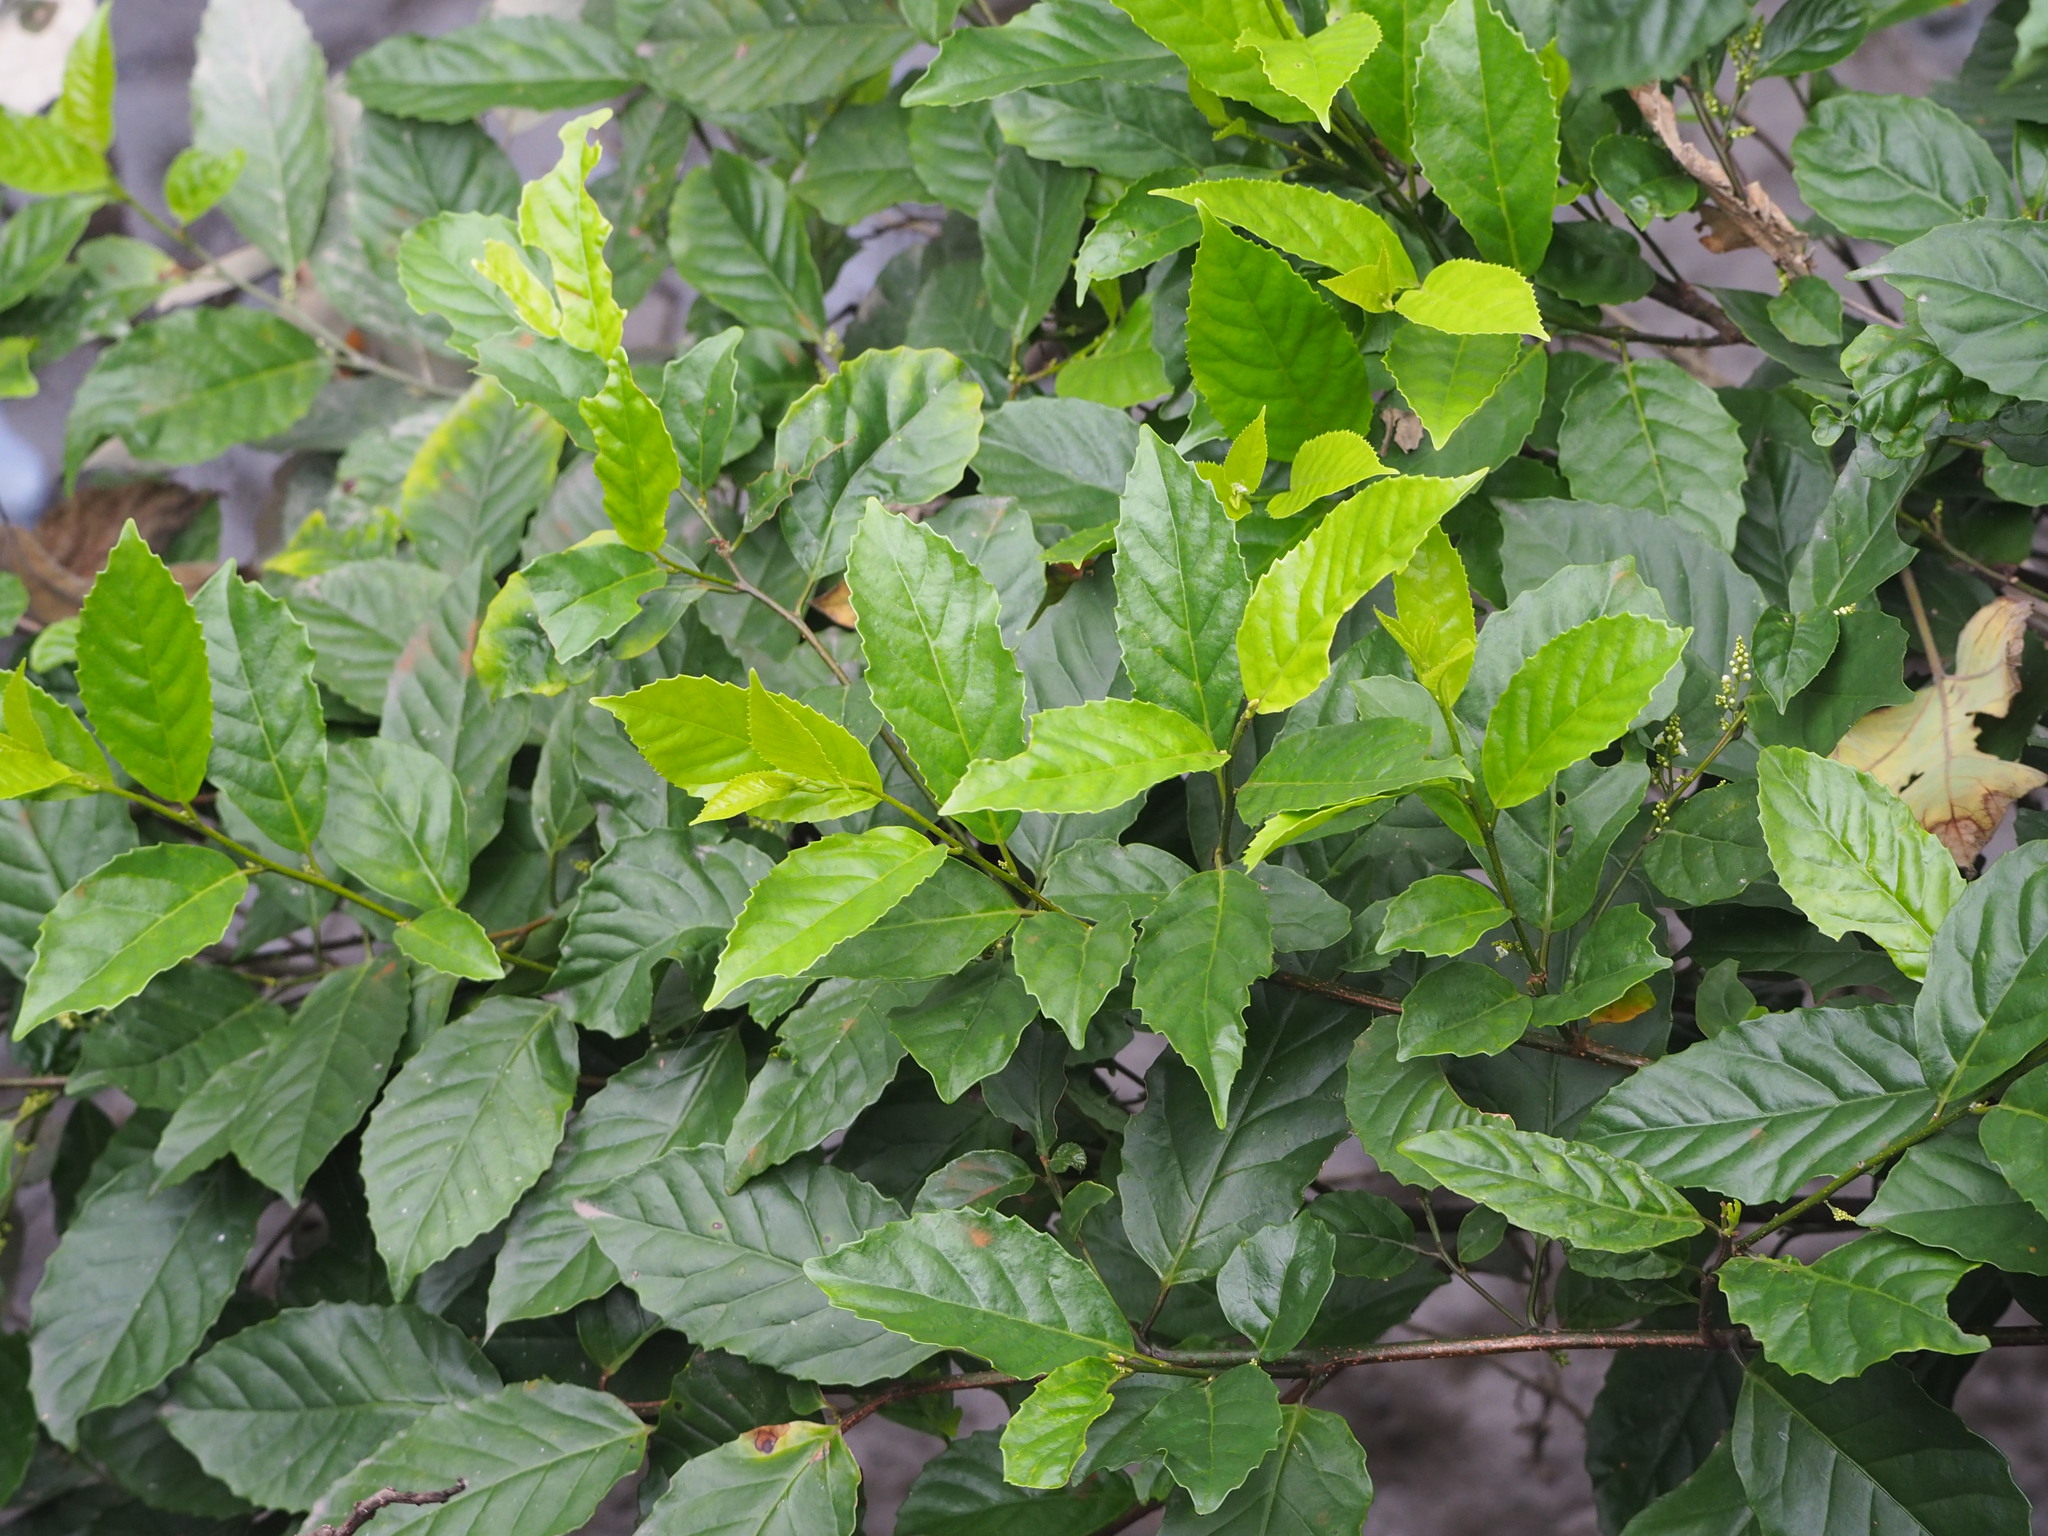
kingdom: Plantae
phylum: Tracheophyta
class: Magnoliopsida
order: Ericales
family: Primulaceae
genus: Maesa
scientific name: Maesa perlaria
